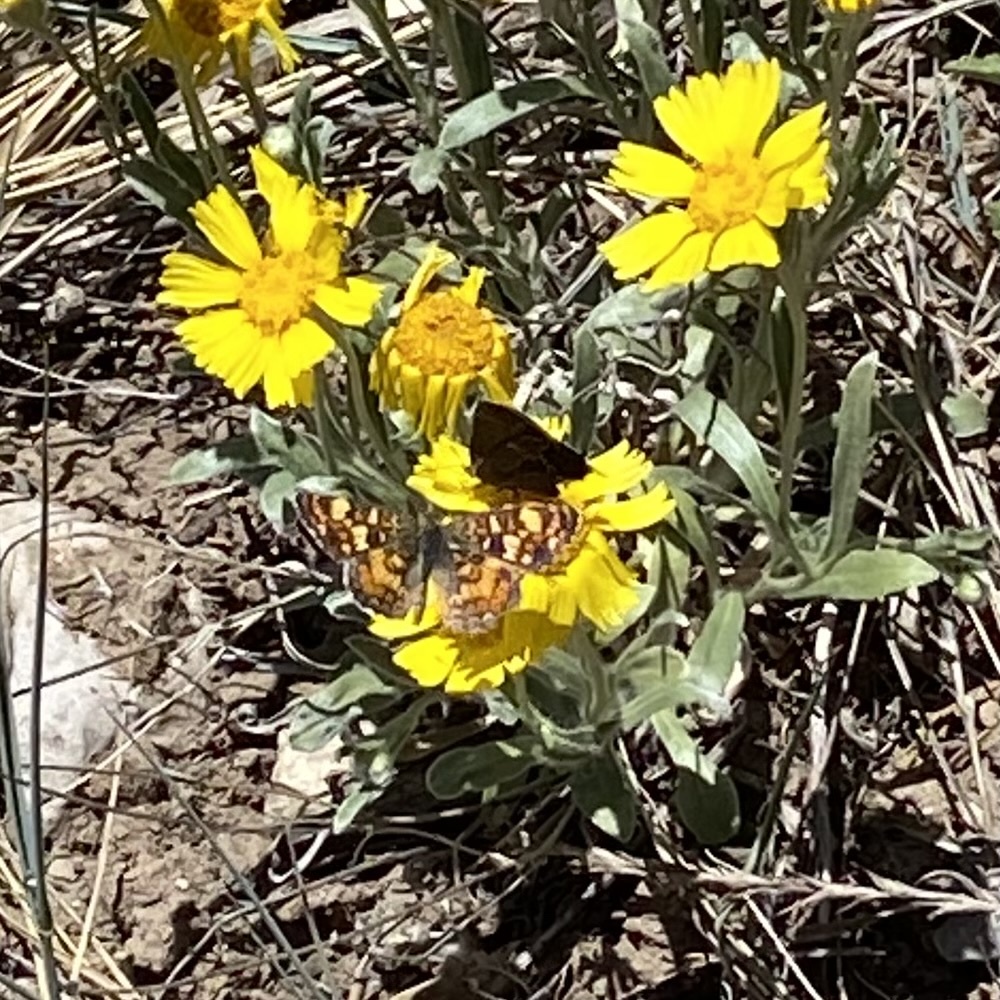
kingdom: Animalia
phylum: Arthropoda
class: Insecta
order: Lepidoptera
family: Lycaenidae
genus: Mitoura
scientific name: Mitoura spinetorum
